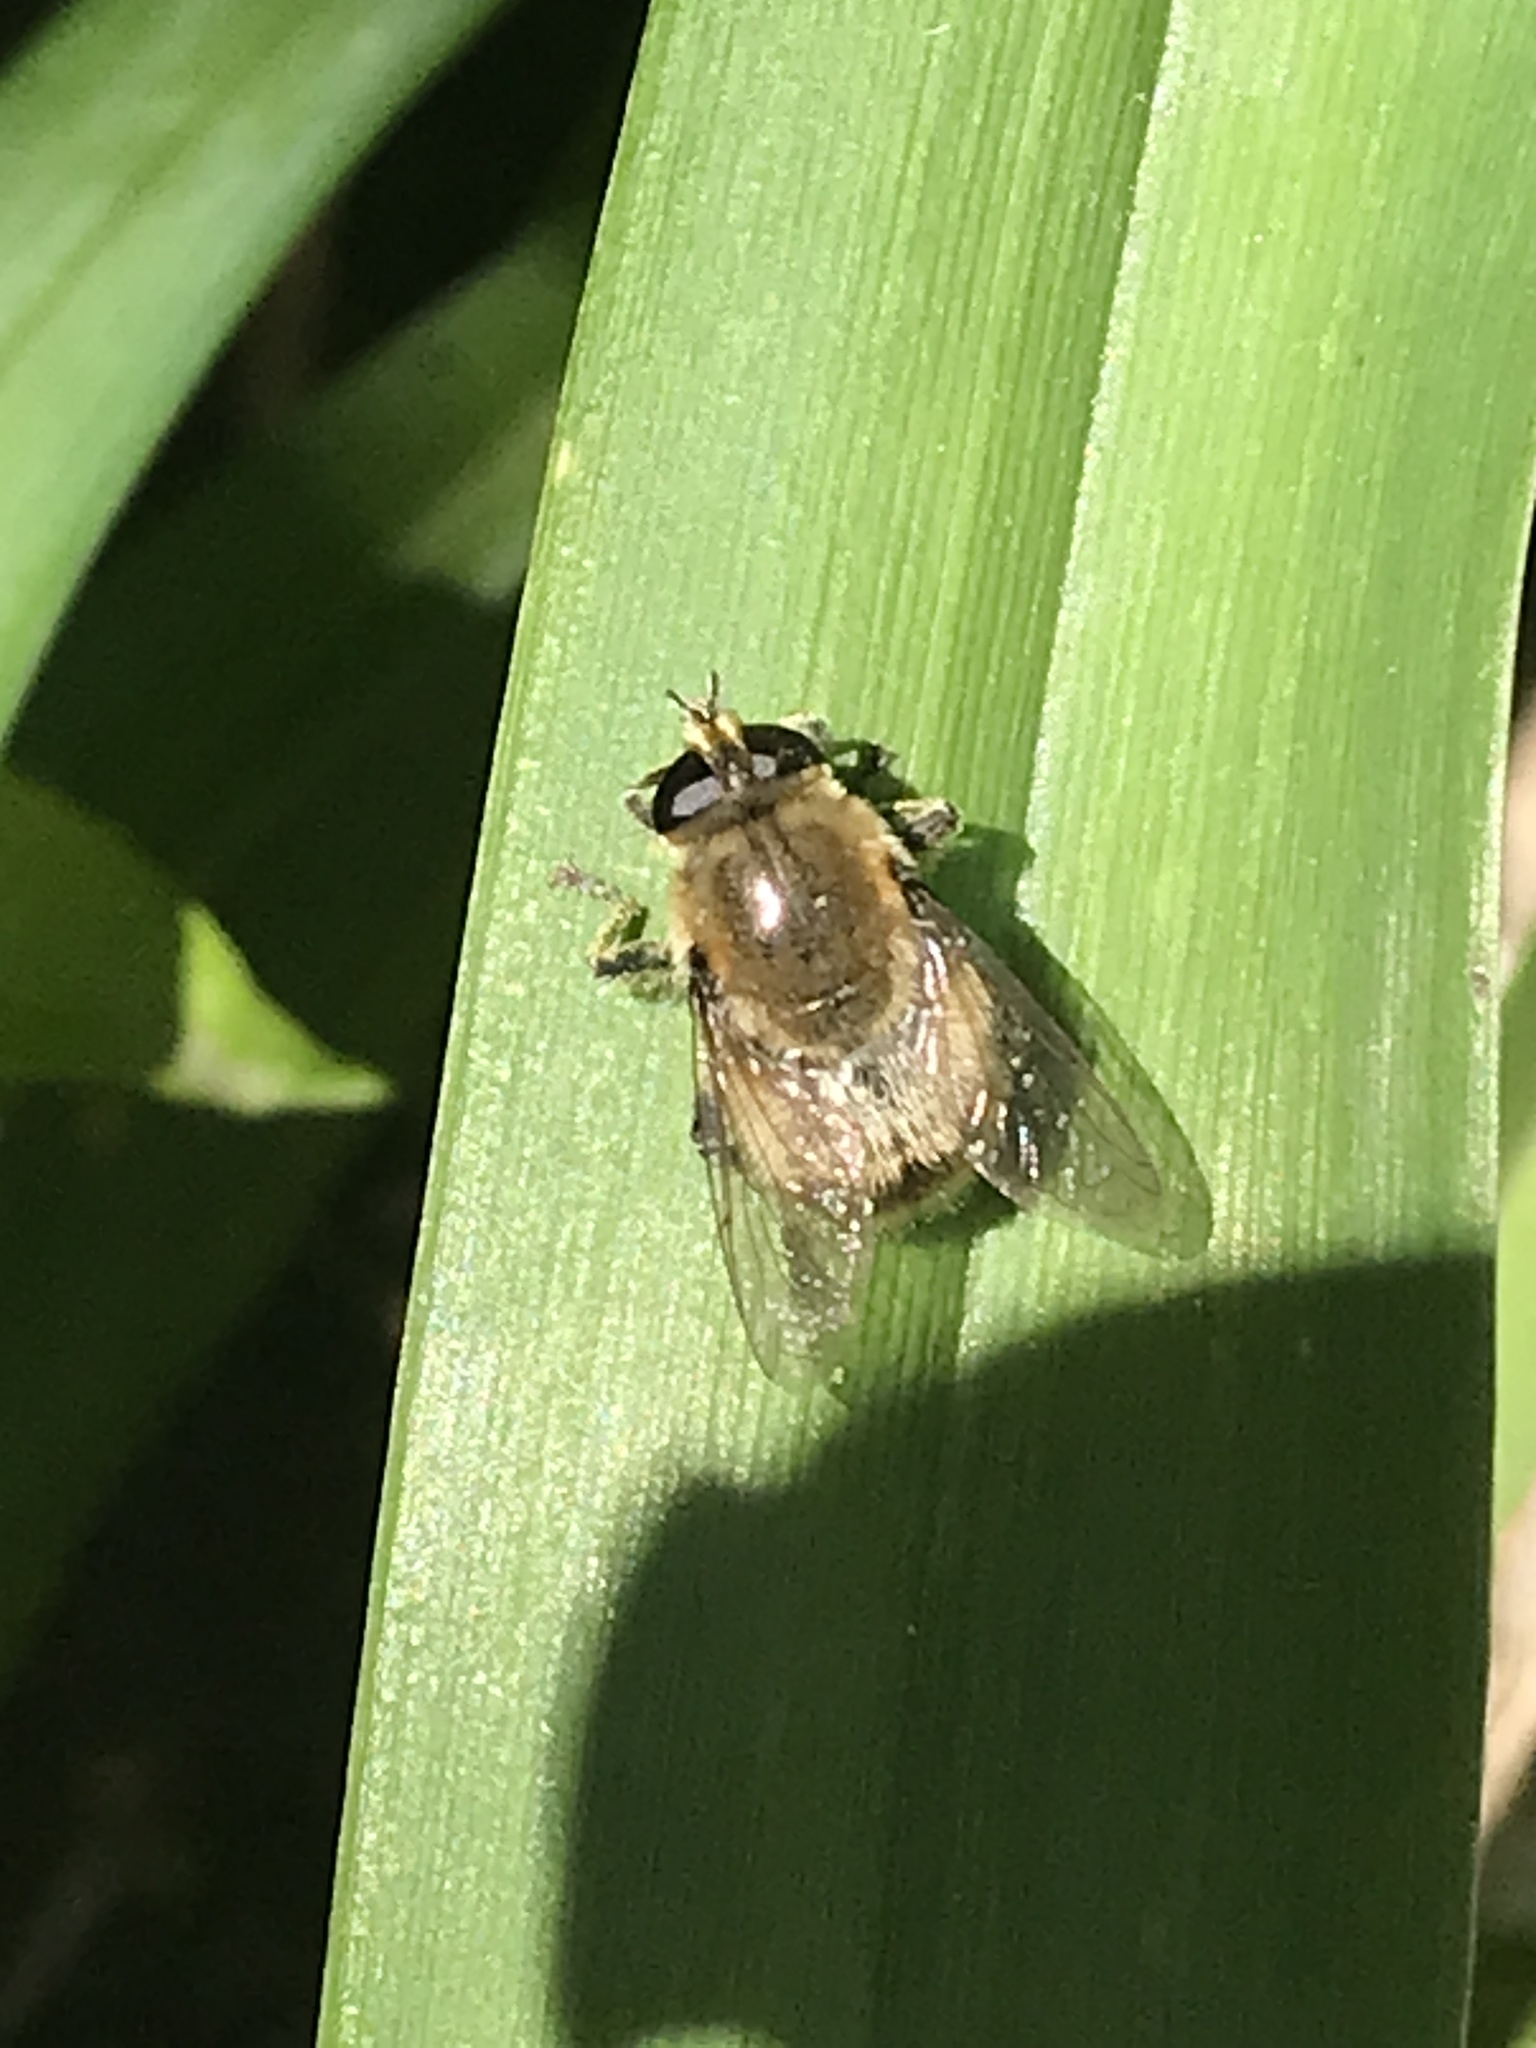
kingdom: Animalia
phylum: Arthropoda
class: Insecta
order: Diptera
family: Syrphidae
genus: Merodon
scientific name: Merodon equestris
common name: Greater bulb-fly
